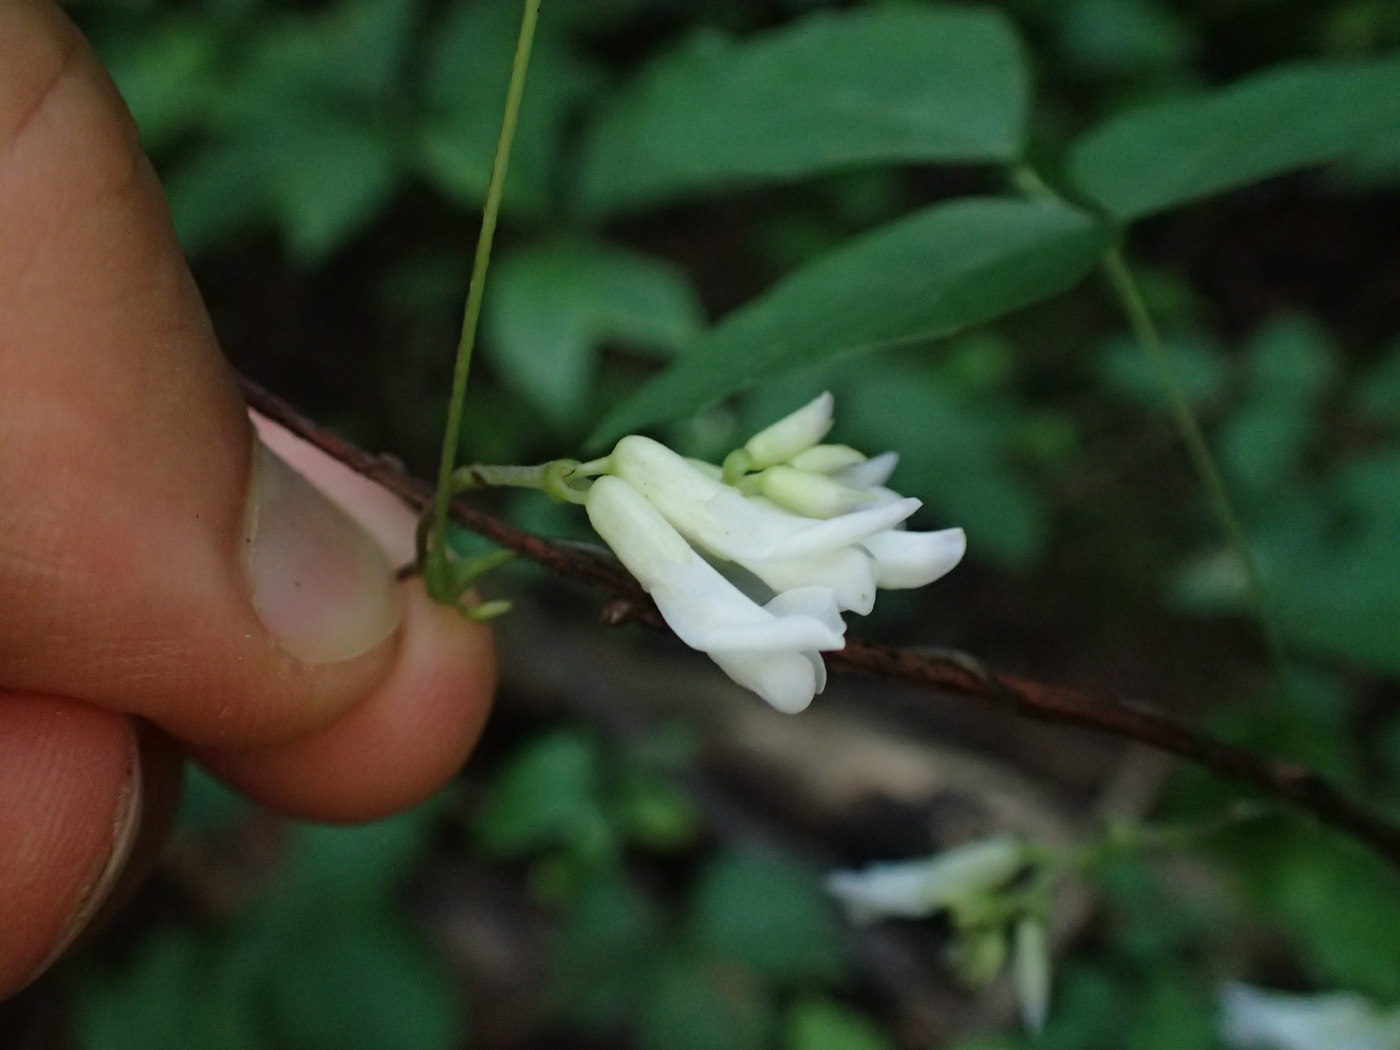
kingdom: Plantae
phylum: Tracheophyta
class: Magnoliopsida
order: Fabales
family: Fabaceae
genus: Amphicarpaea
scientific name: Amphicarpaea bracteata
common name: American hog peanut
